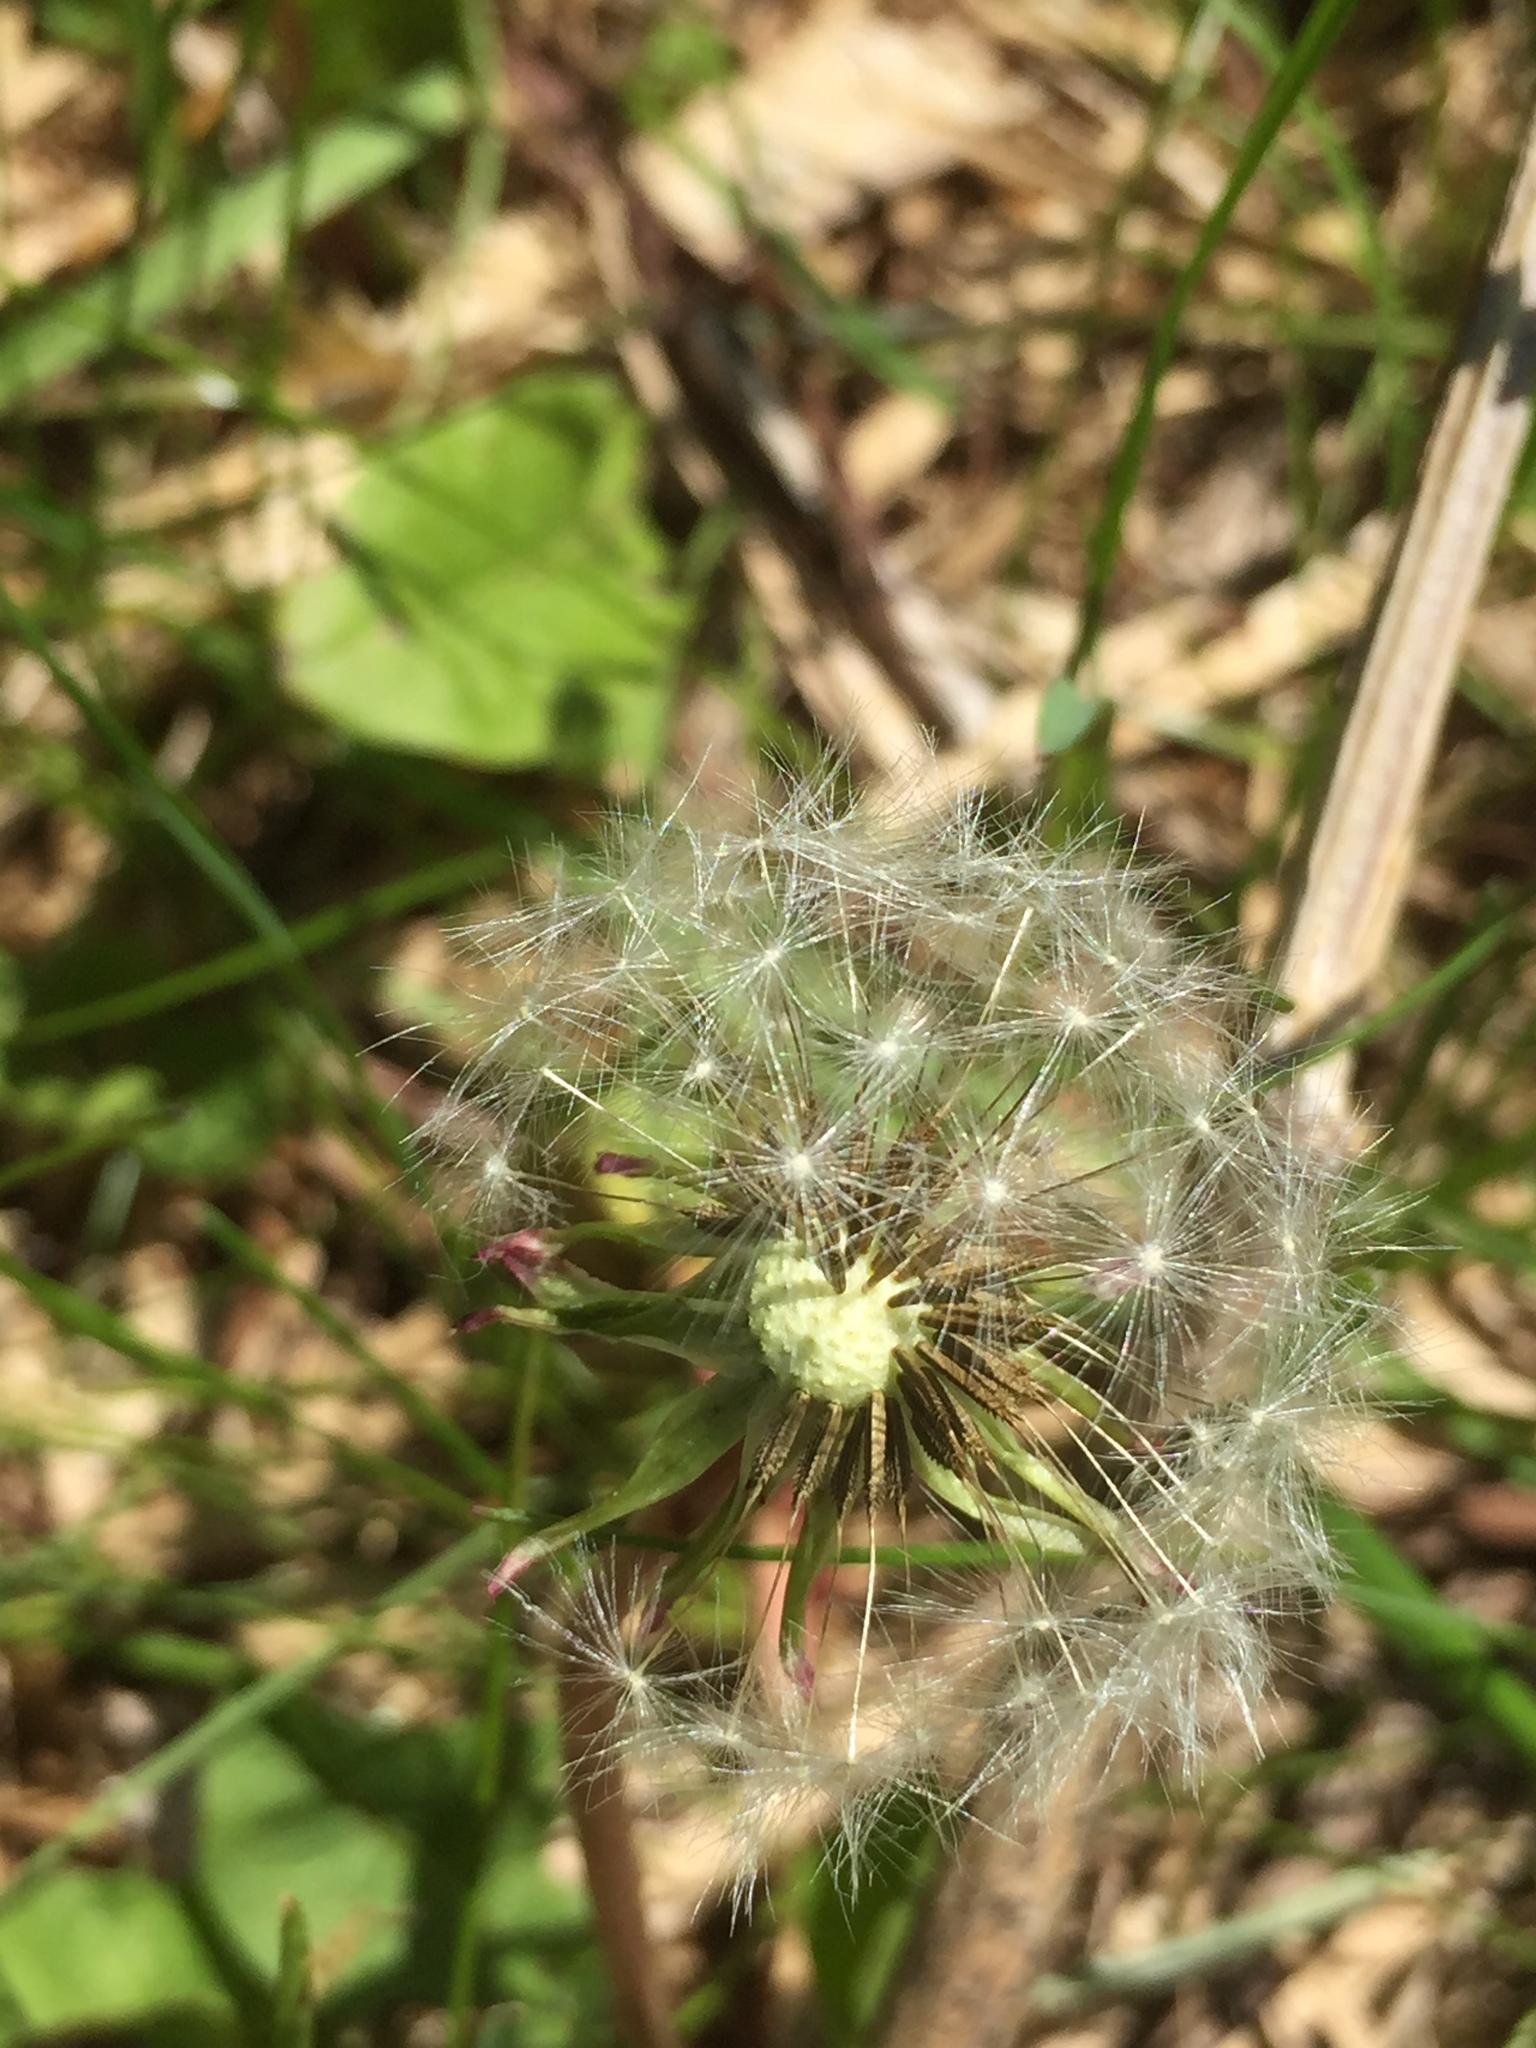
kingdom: Plantae
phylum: Tracheophyta
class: Magnoliopsida
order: Asterales
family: Asteraceae
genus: Taraxacum
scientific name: Taraxacum officinale
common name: Common dandelion
